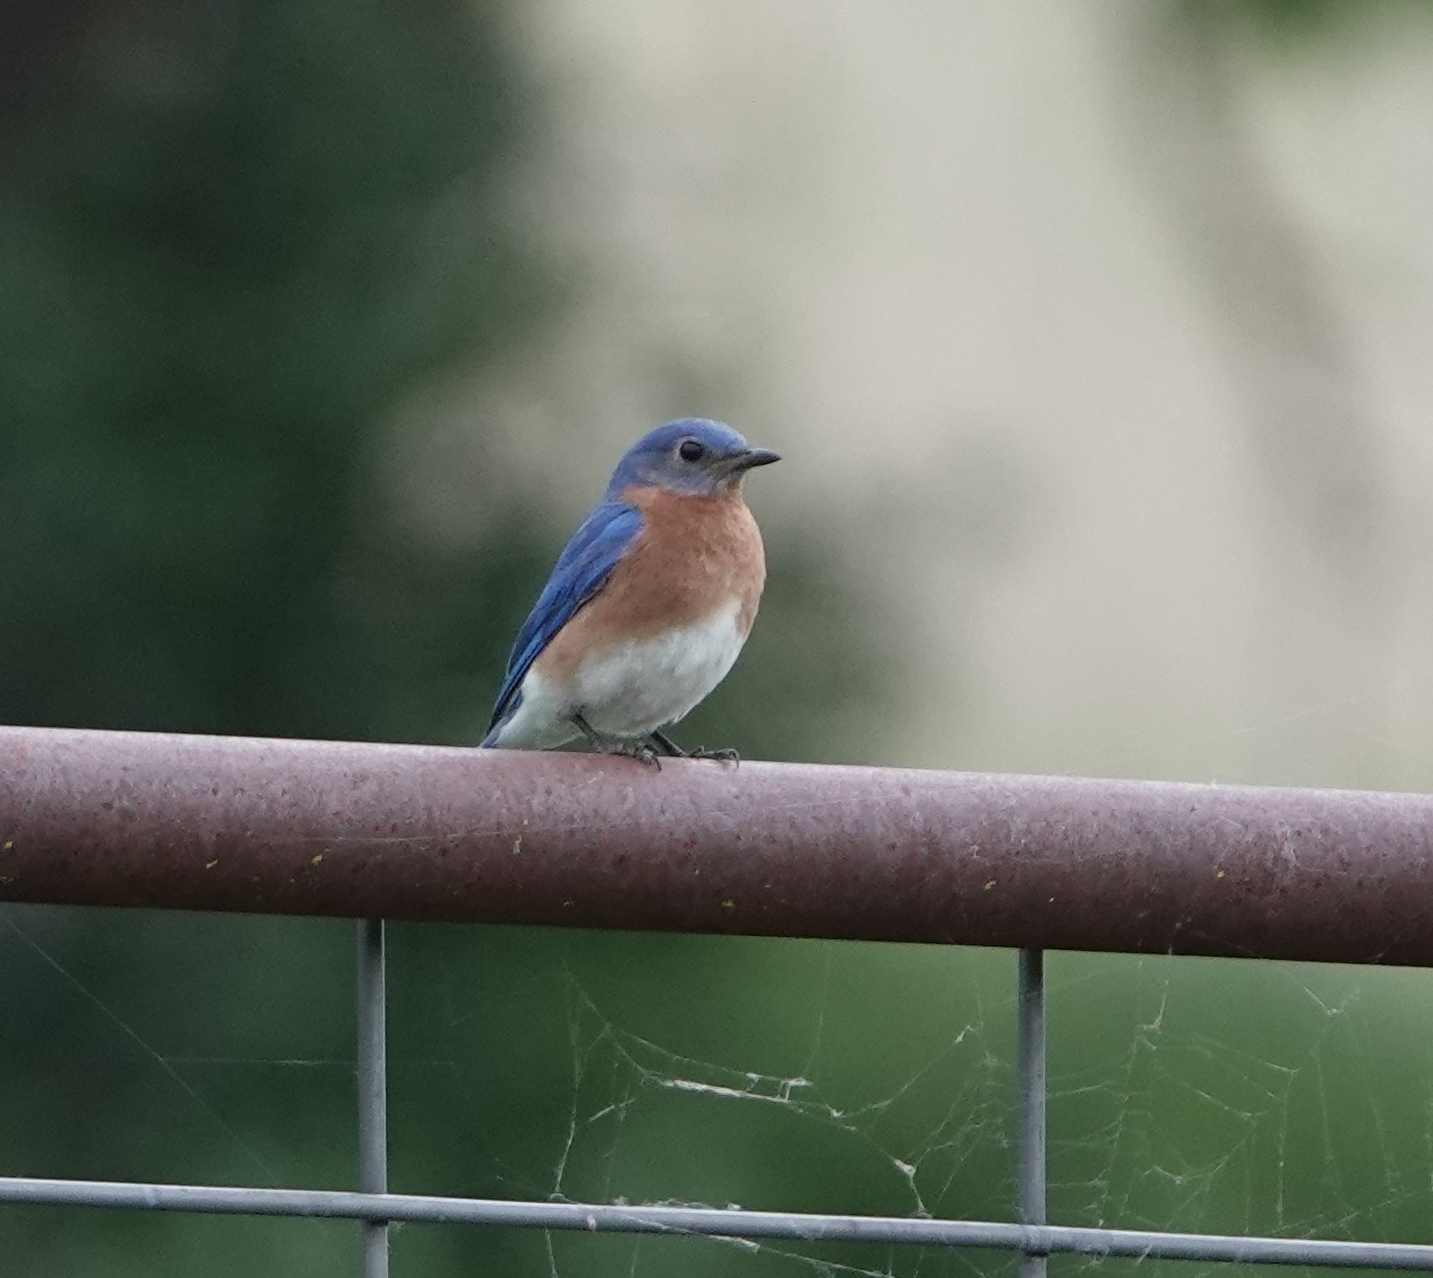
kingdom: Animalia
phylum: Chordata
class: Aves
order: Passeriformes
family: Turdidae
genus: Sialia
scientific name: Sialia sialis
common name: Eastern bluebird
